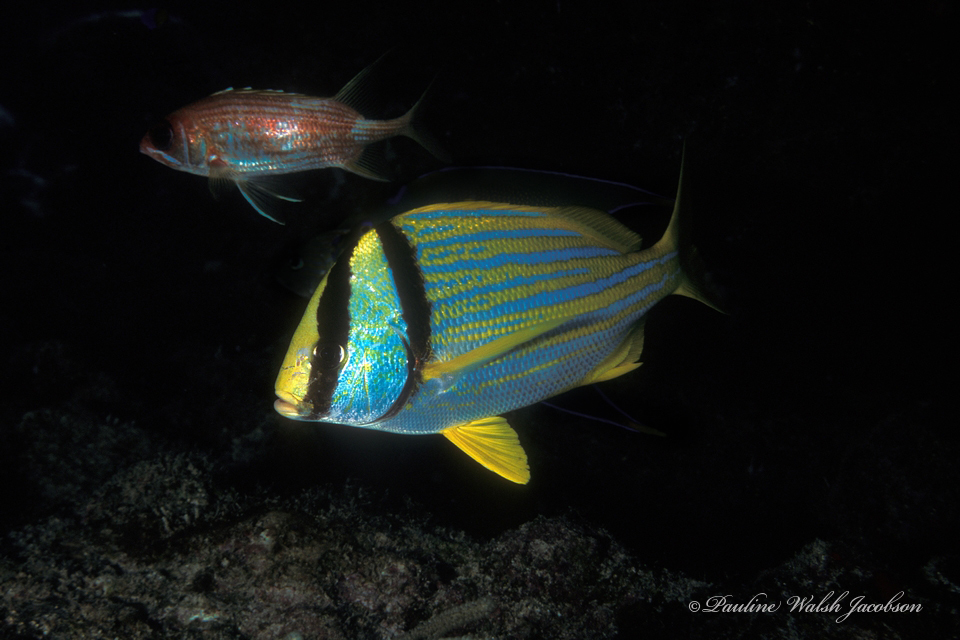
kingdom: Animalia
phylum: Chordata
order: Perciformes
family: Haemulidae
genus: Anisotremus
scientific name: Anisotremus virginicus
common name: Porkfish
